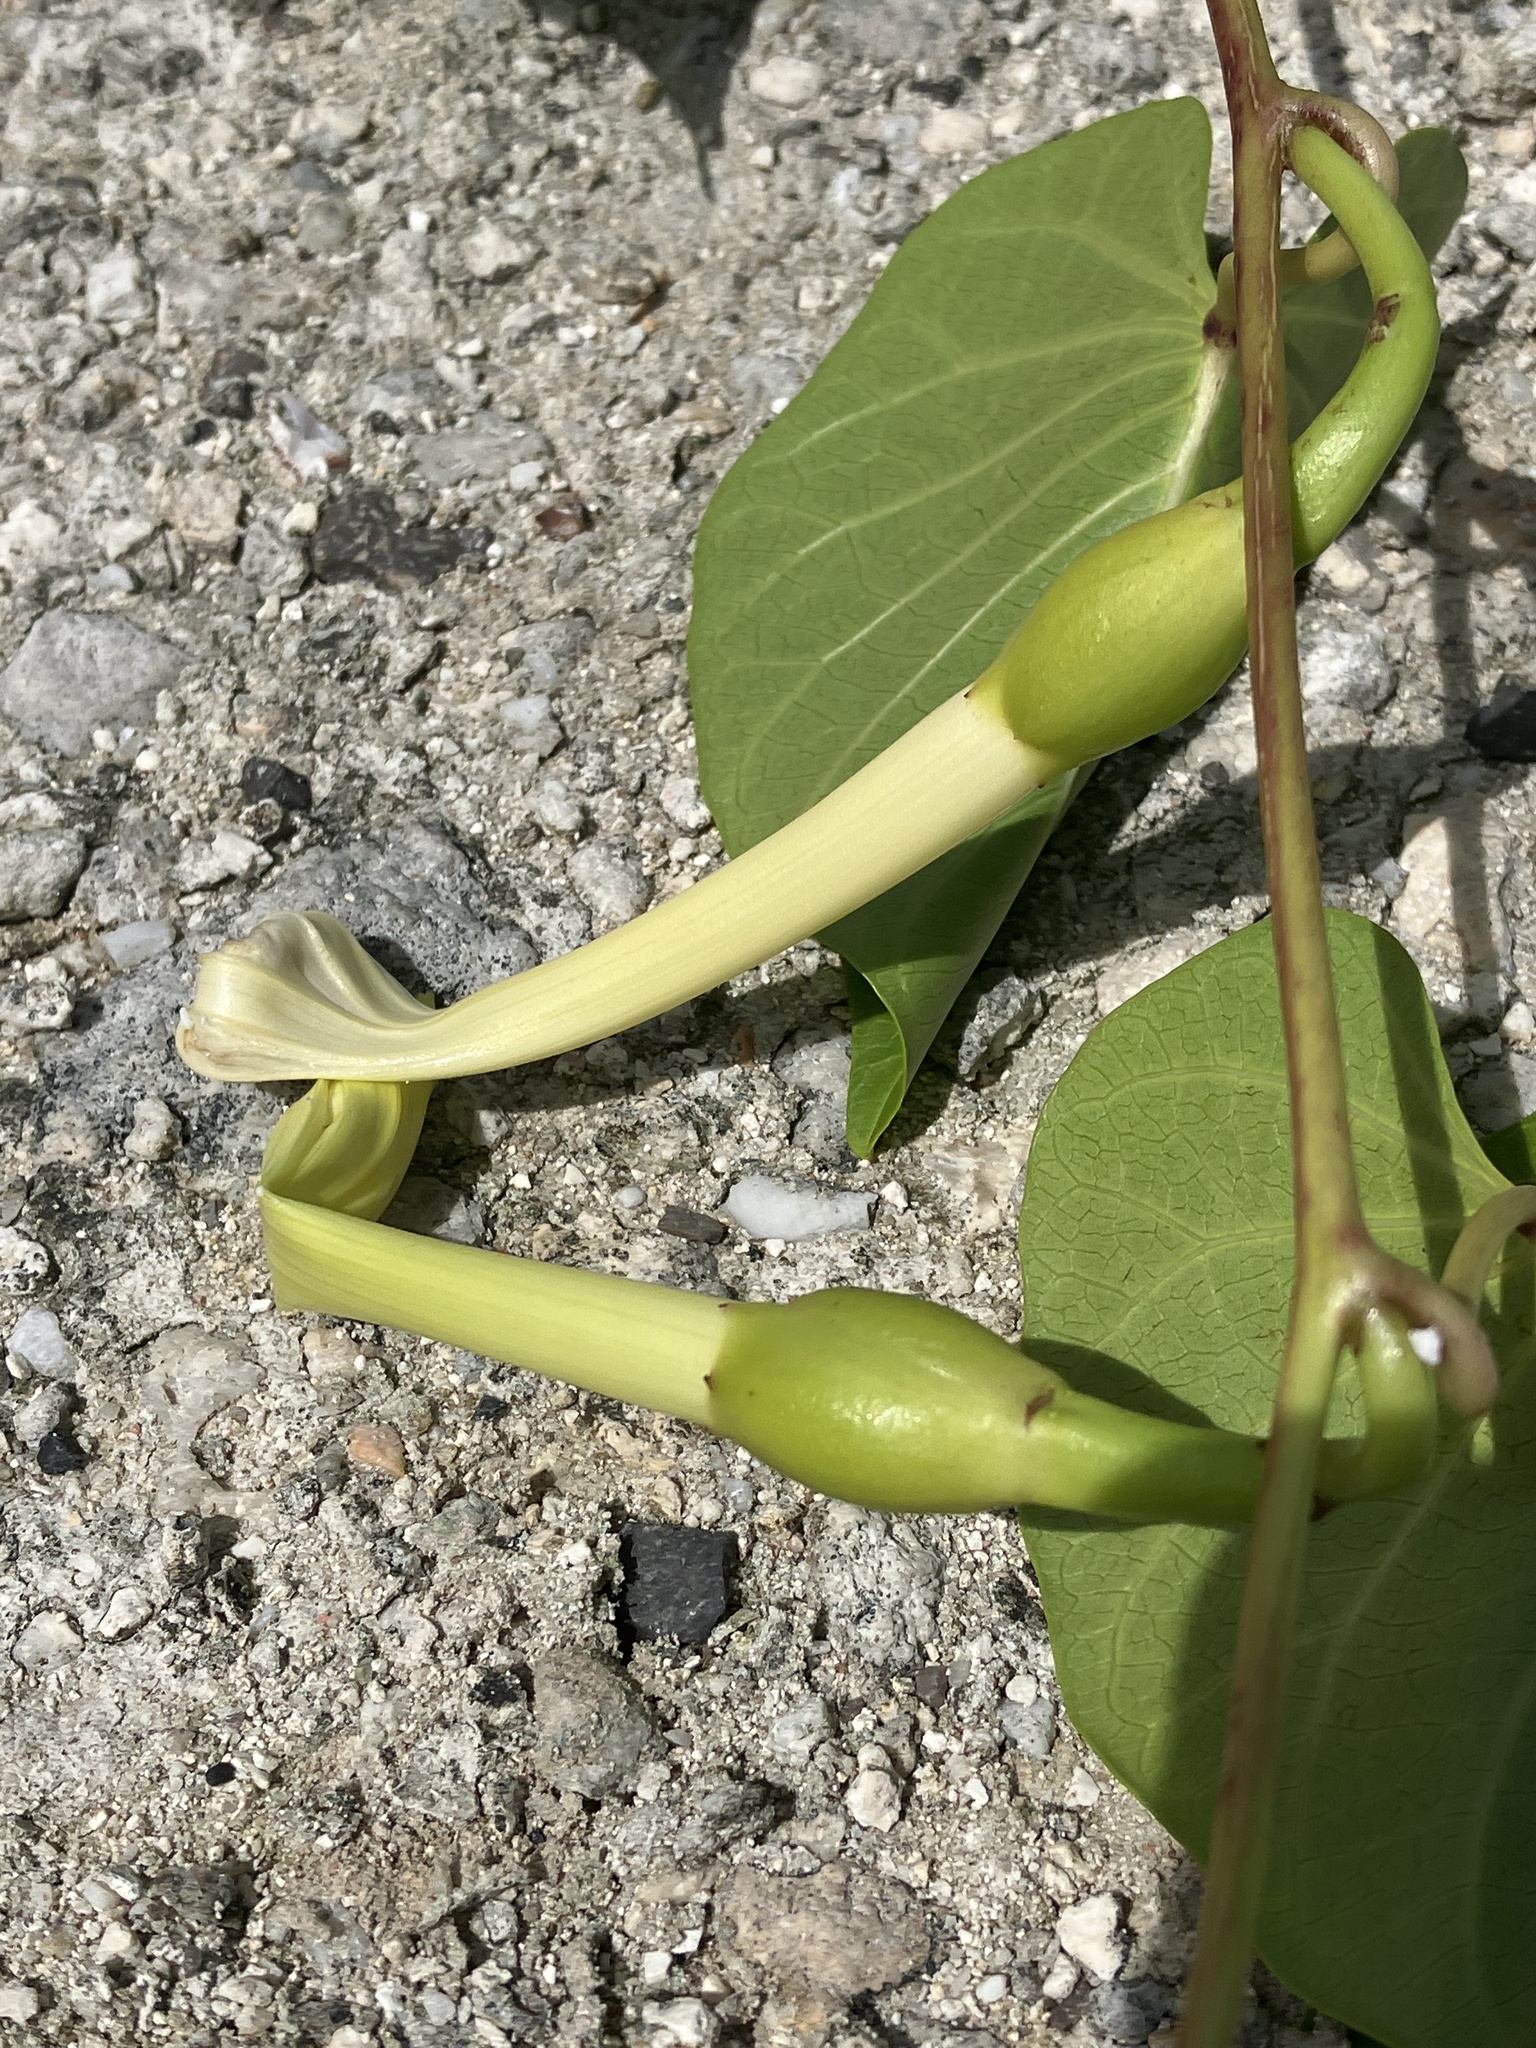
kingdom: Plantae
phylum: Tracheophyta
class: Magnoliopsida
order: Solanales
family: Convolvulaceae
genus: Ipomoea
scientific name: Ipomoea violacea
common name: Beach moonflower
